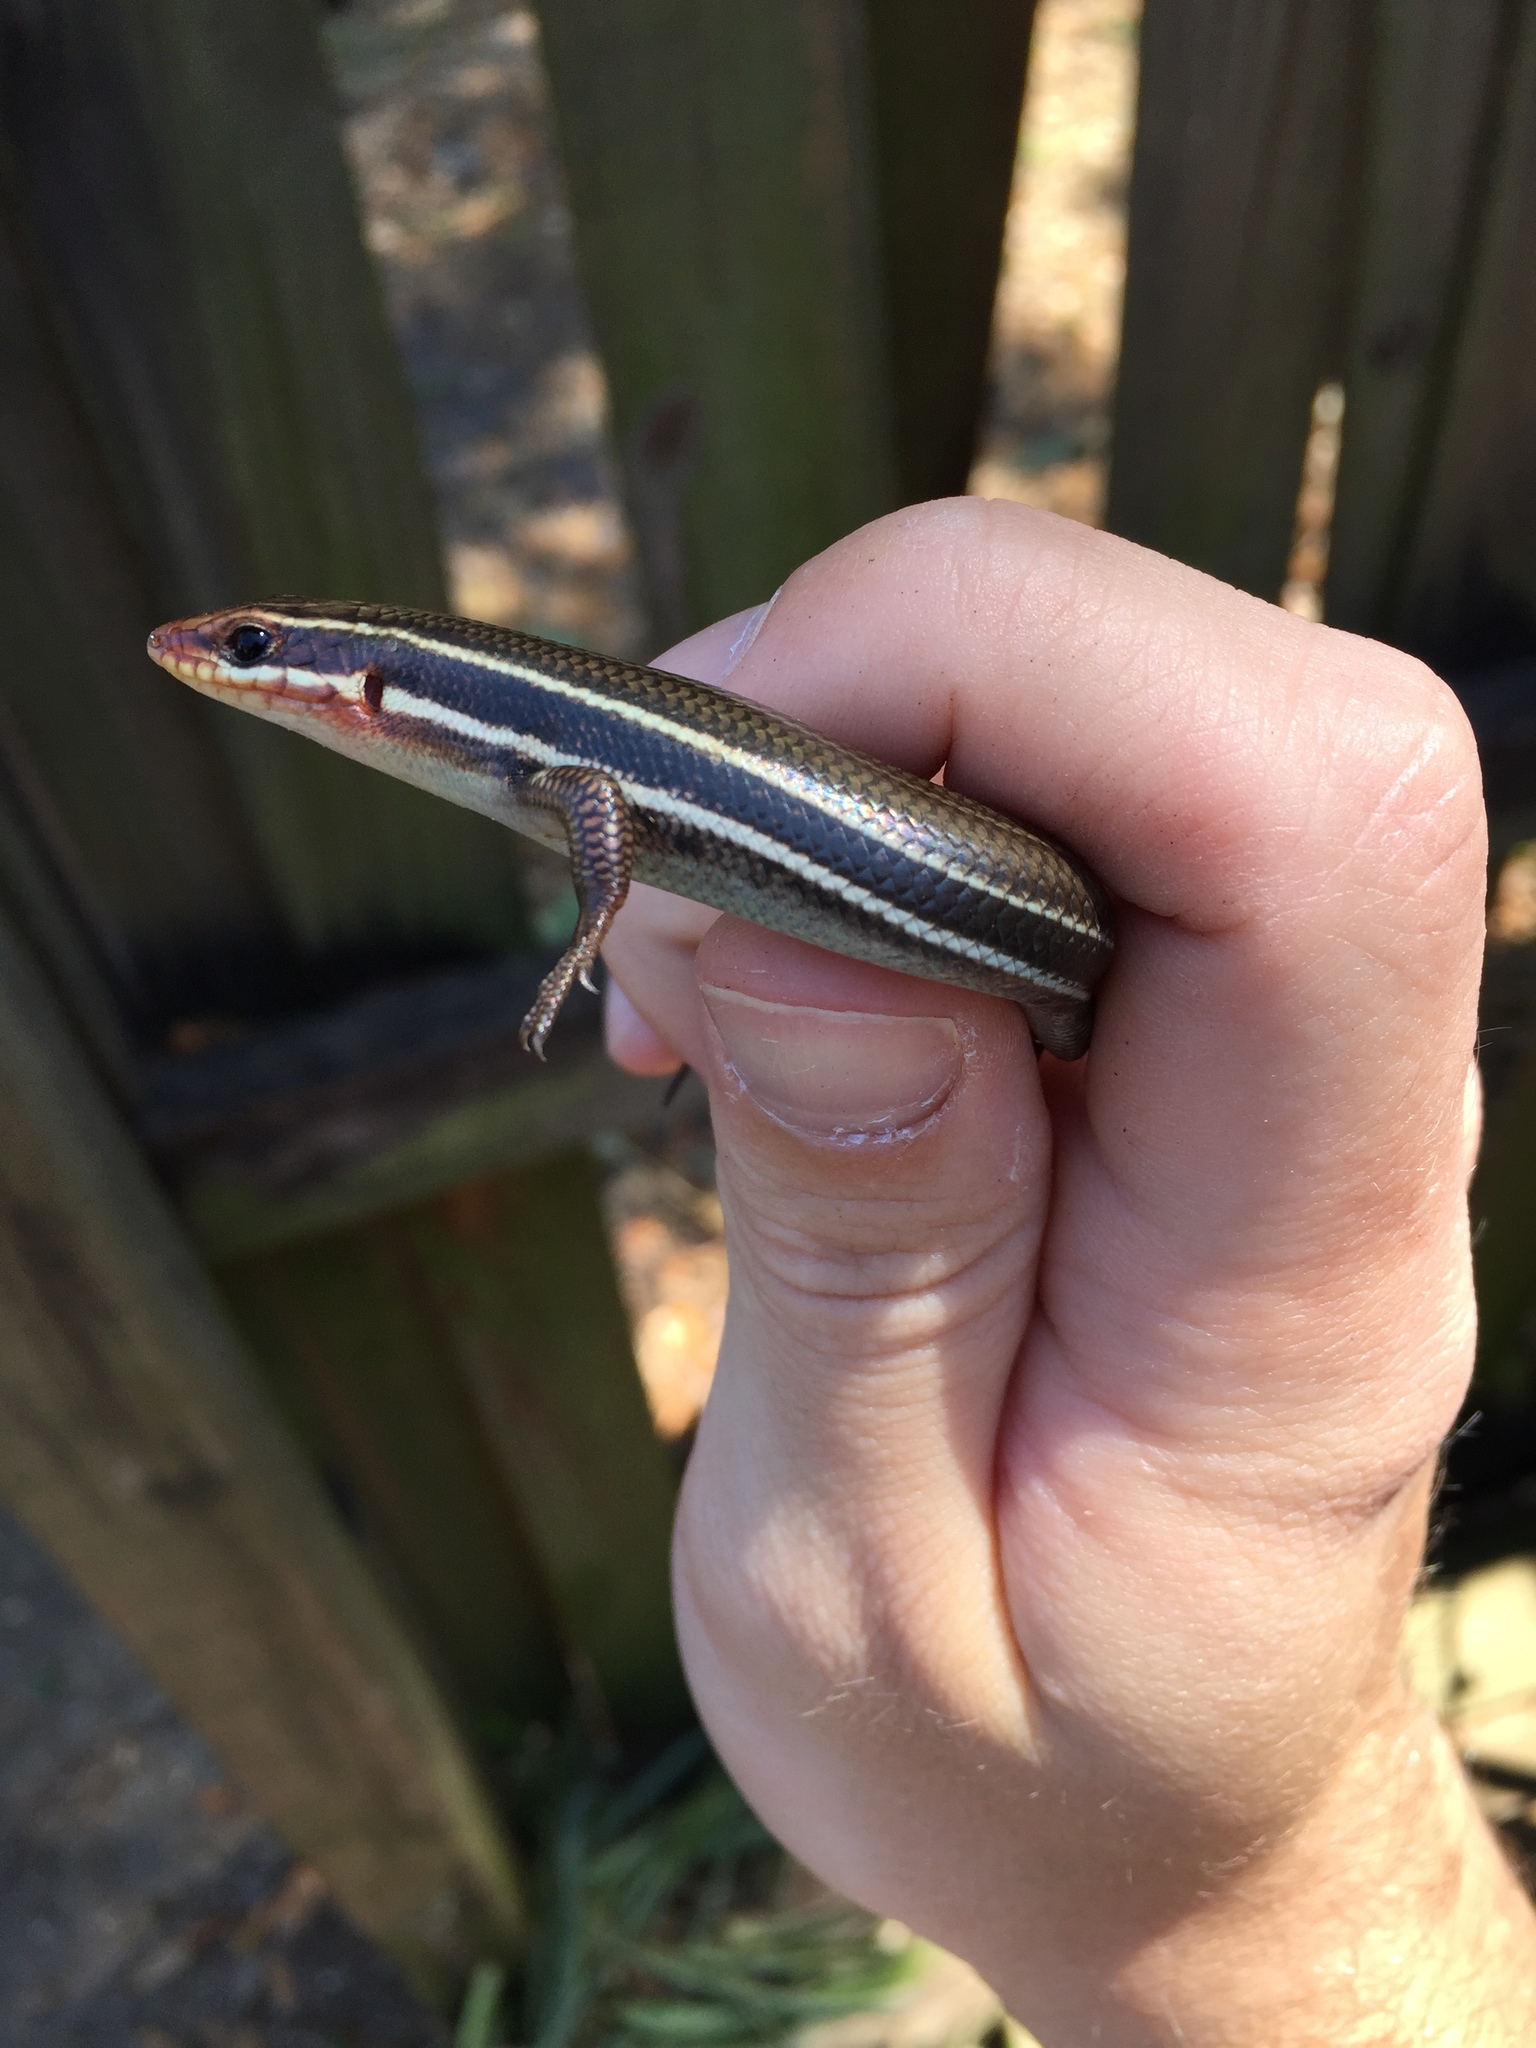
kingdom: Animalia
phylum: Chordata
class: Squamata
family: Scincidae
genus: Plestiodon
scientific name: Plestiodon inexpectatus
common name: Southeastern five-lined skink
